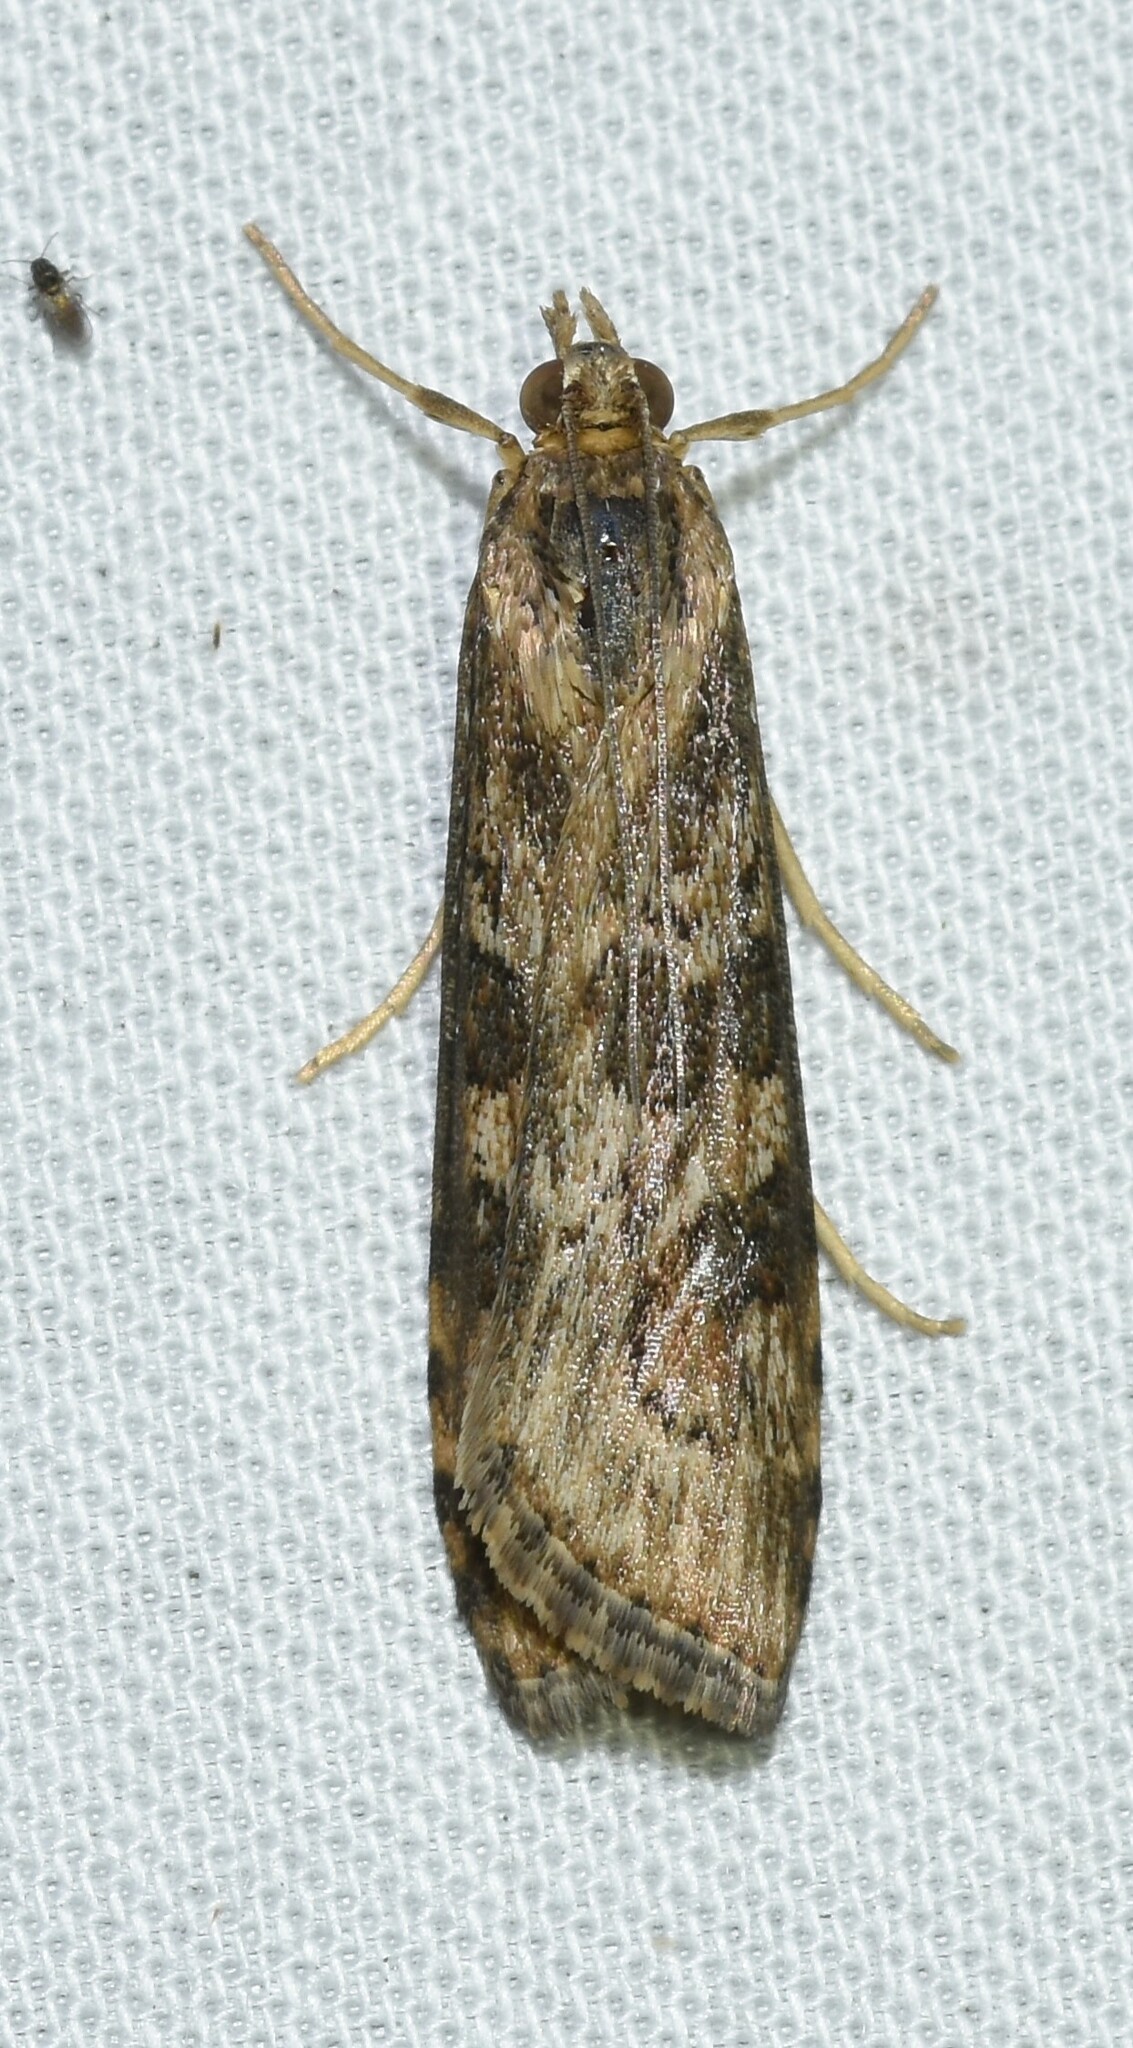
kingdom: Animalia
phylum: Arthropoda
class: Insecta
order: Lepidoptera
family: Crambidae
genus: Nomophila
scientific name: Nomophila nearctica
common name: American rush veneer
